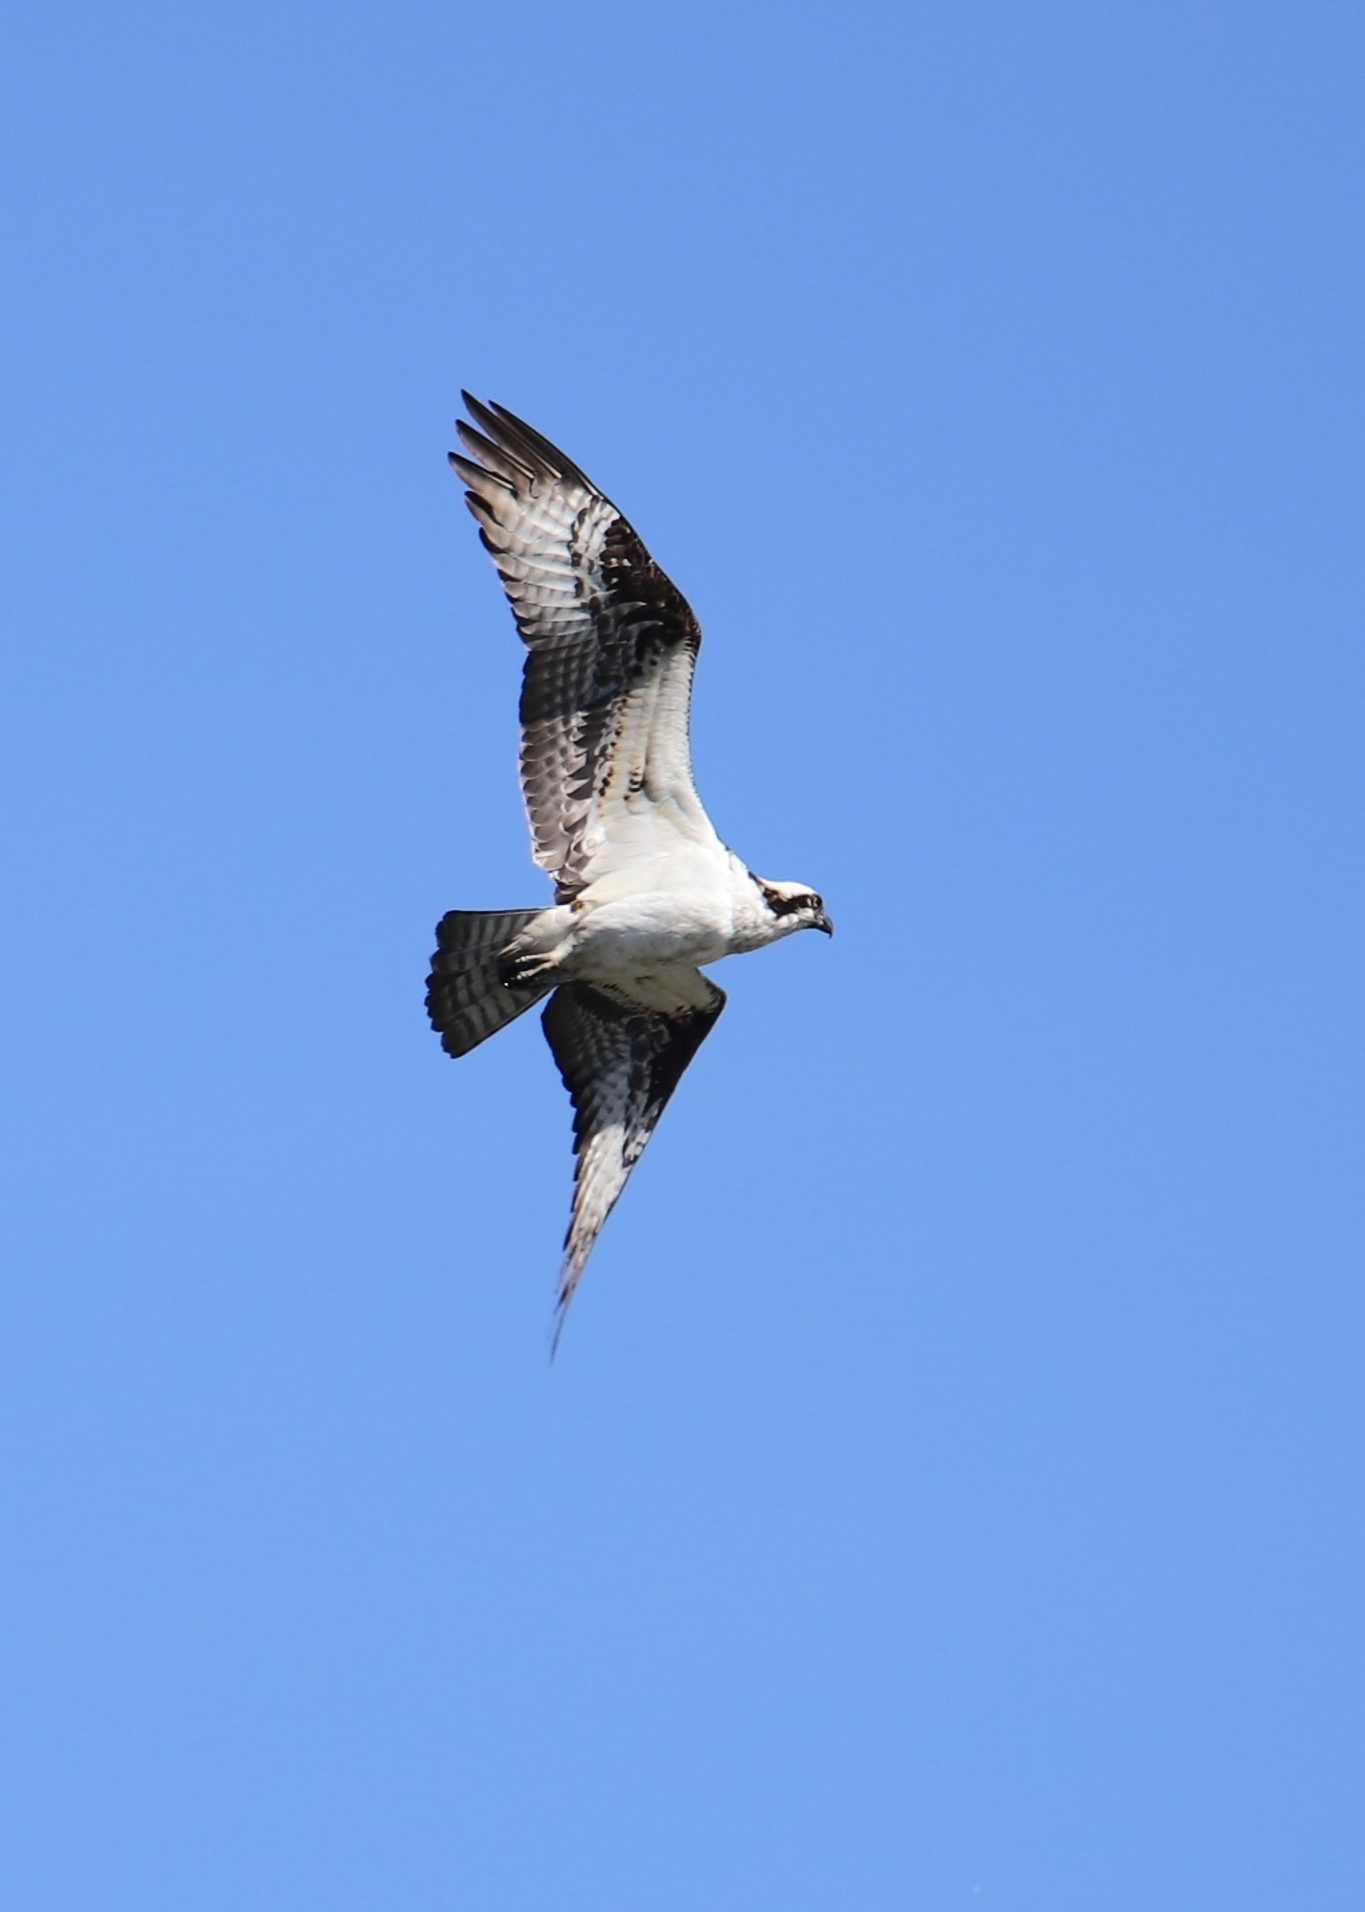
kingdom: Animalia
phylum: Chordata
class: Aves
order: Accipitriformes
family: Pandionidae
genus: Pandion
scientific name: Pandion haliaetus
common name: Osprey
